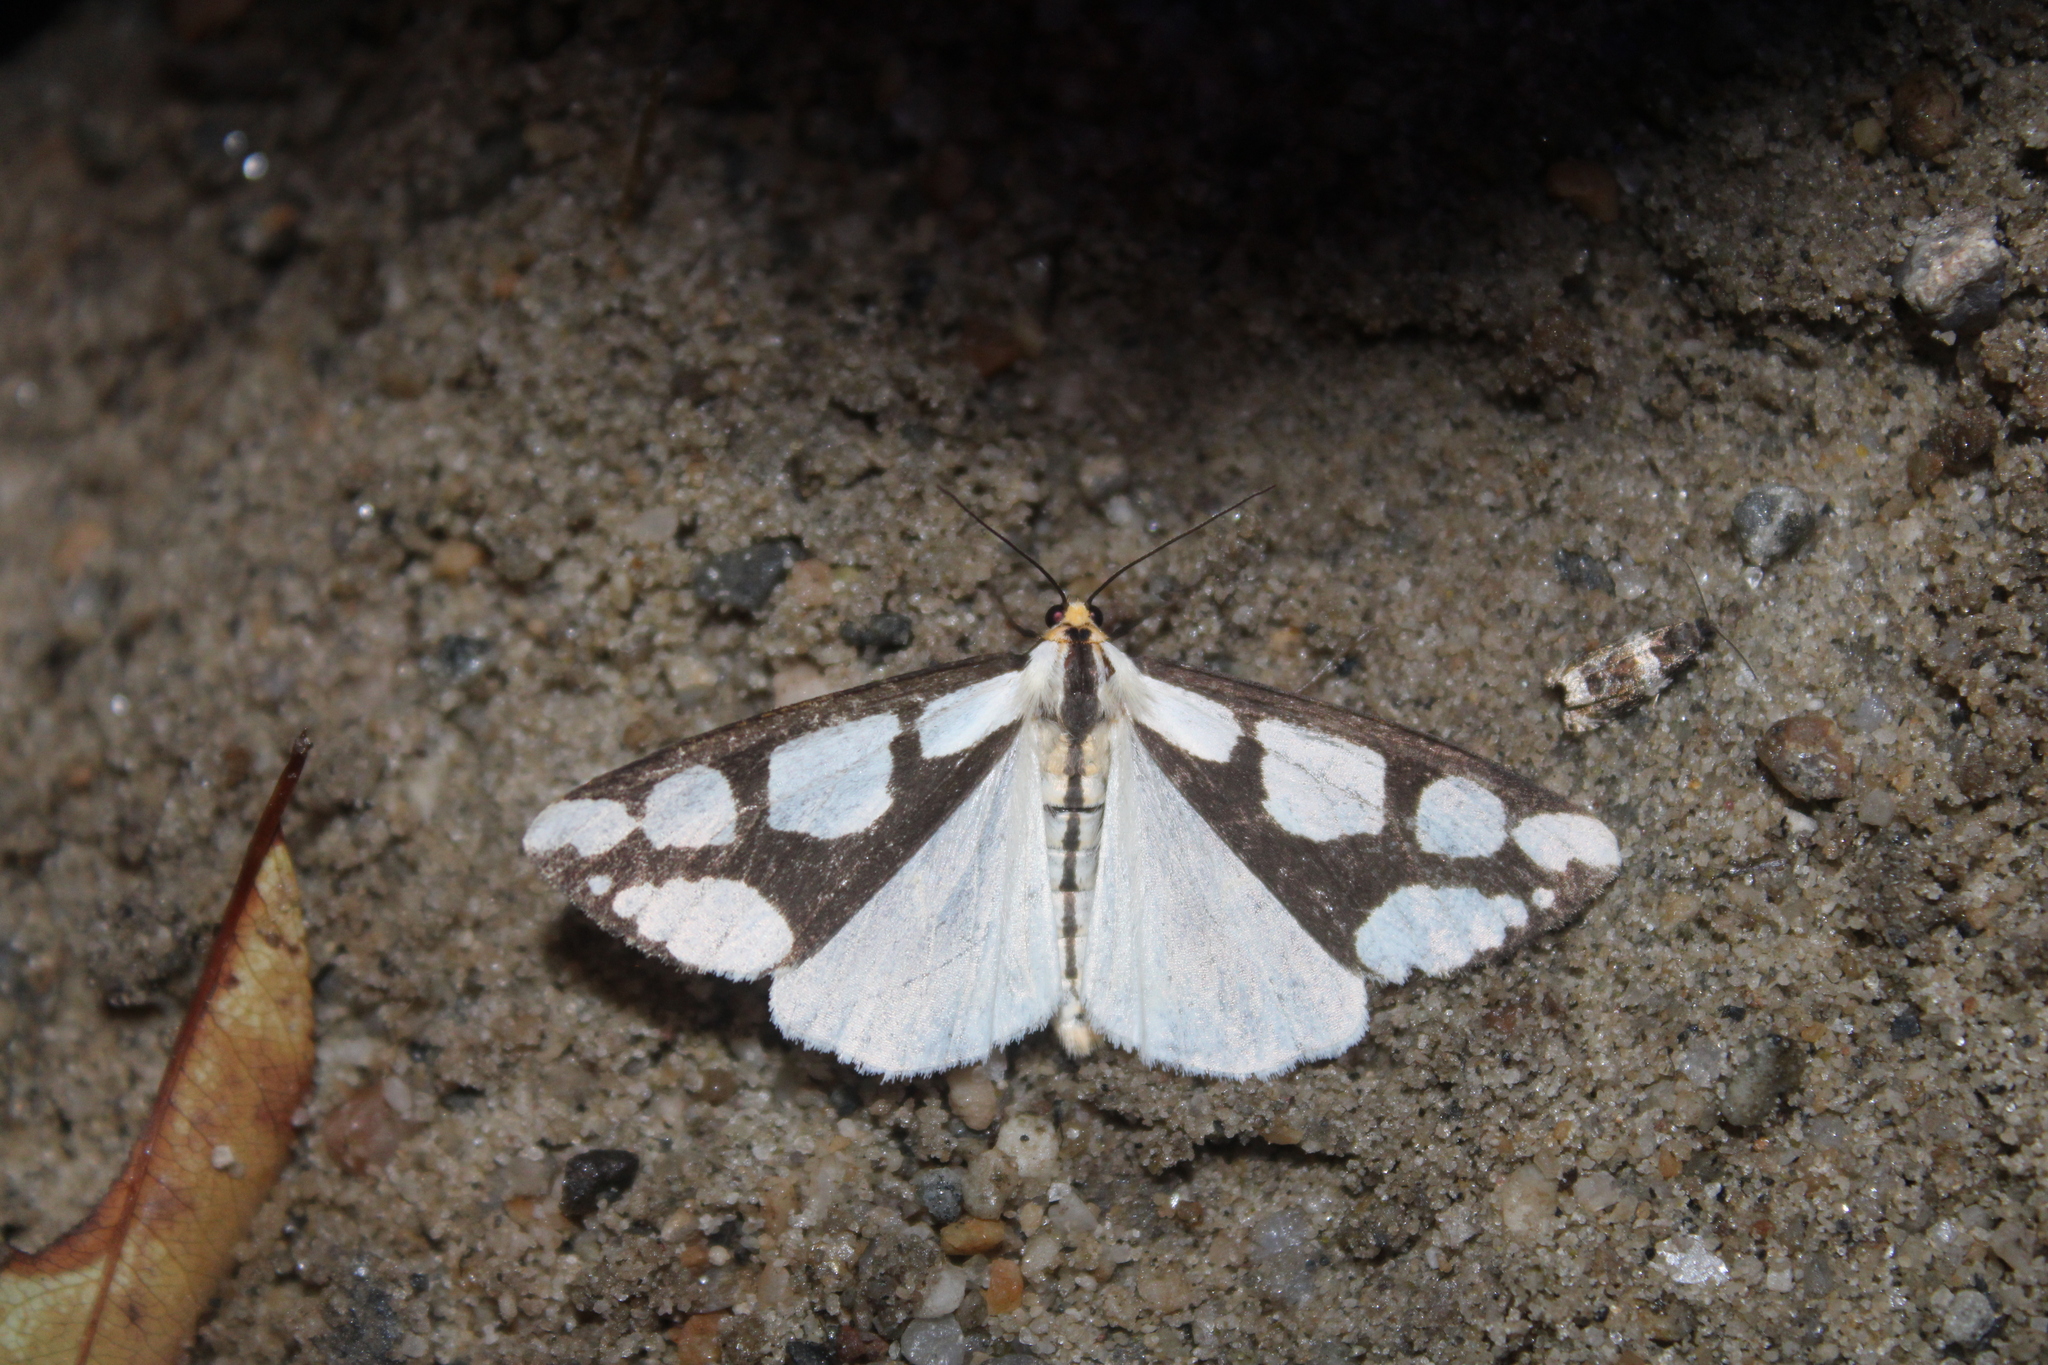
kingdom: Animalia
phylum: Arthropoda
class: Insecta
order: Lepidoptera
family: Erebidae
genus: Haploa
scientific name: Haploa lecontei
